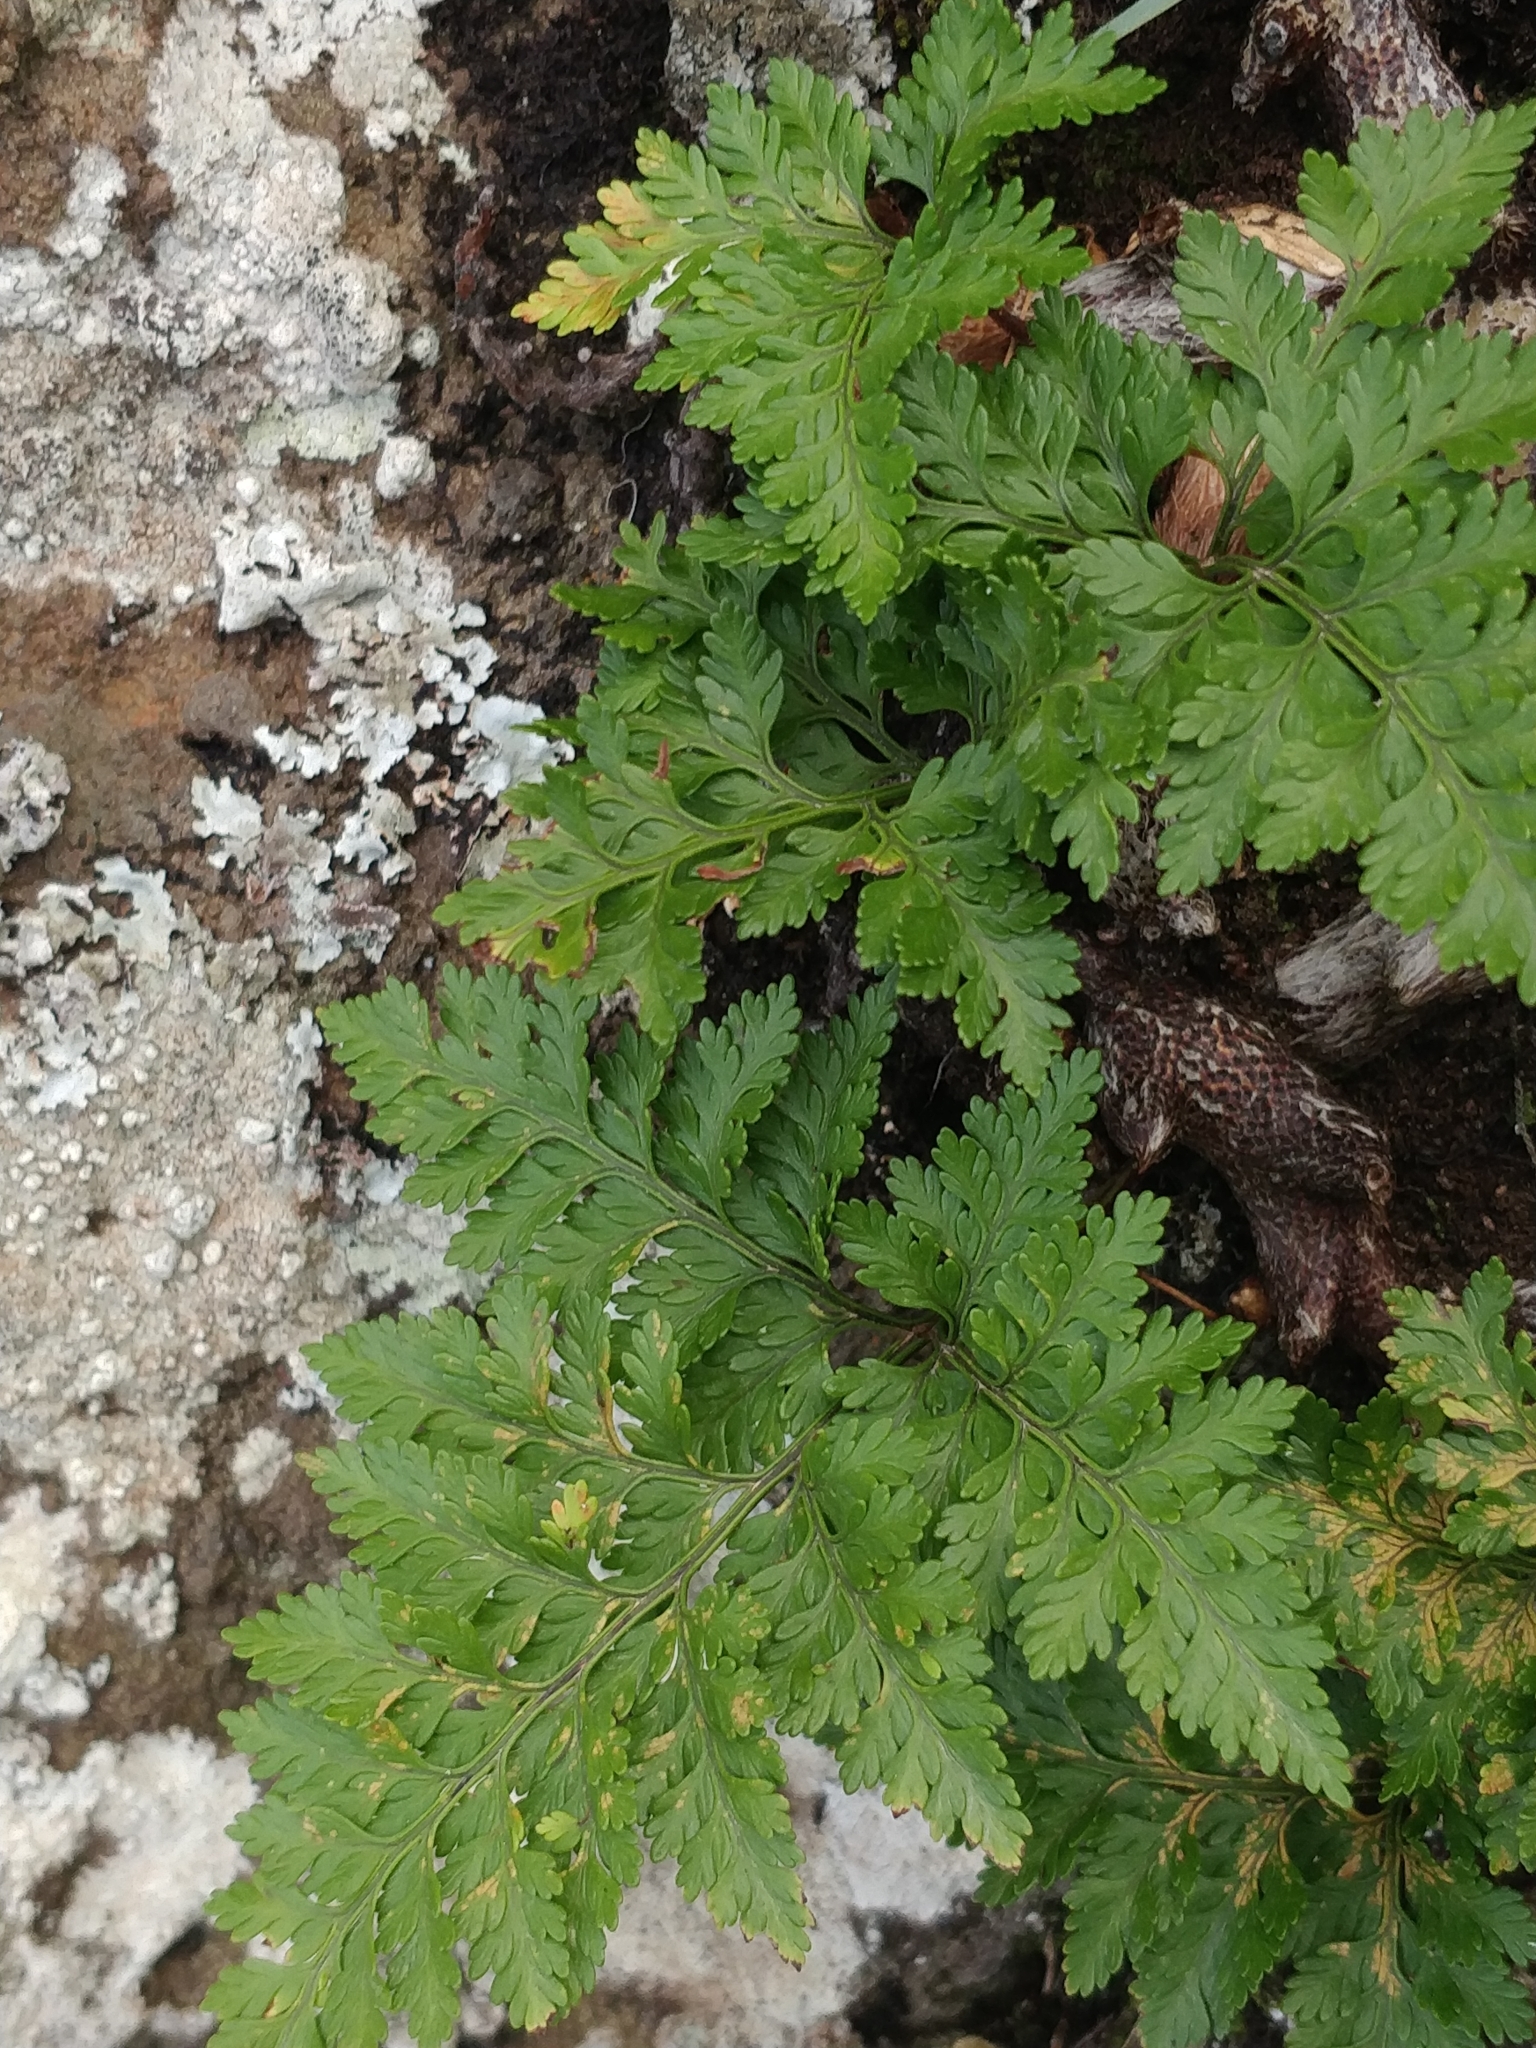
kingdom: Plantae
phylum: Tracheophyta
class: Polypodiopsida
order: Polypodiales
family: Davalliaceae
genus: Davallia
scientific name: Davallia canariensis
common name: Hare's-foot fern
